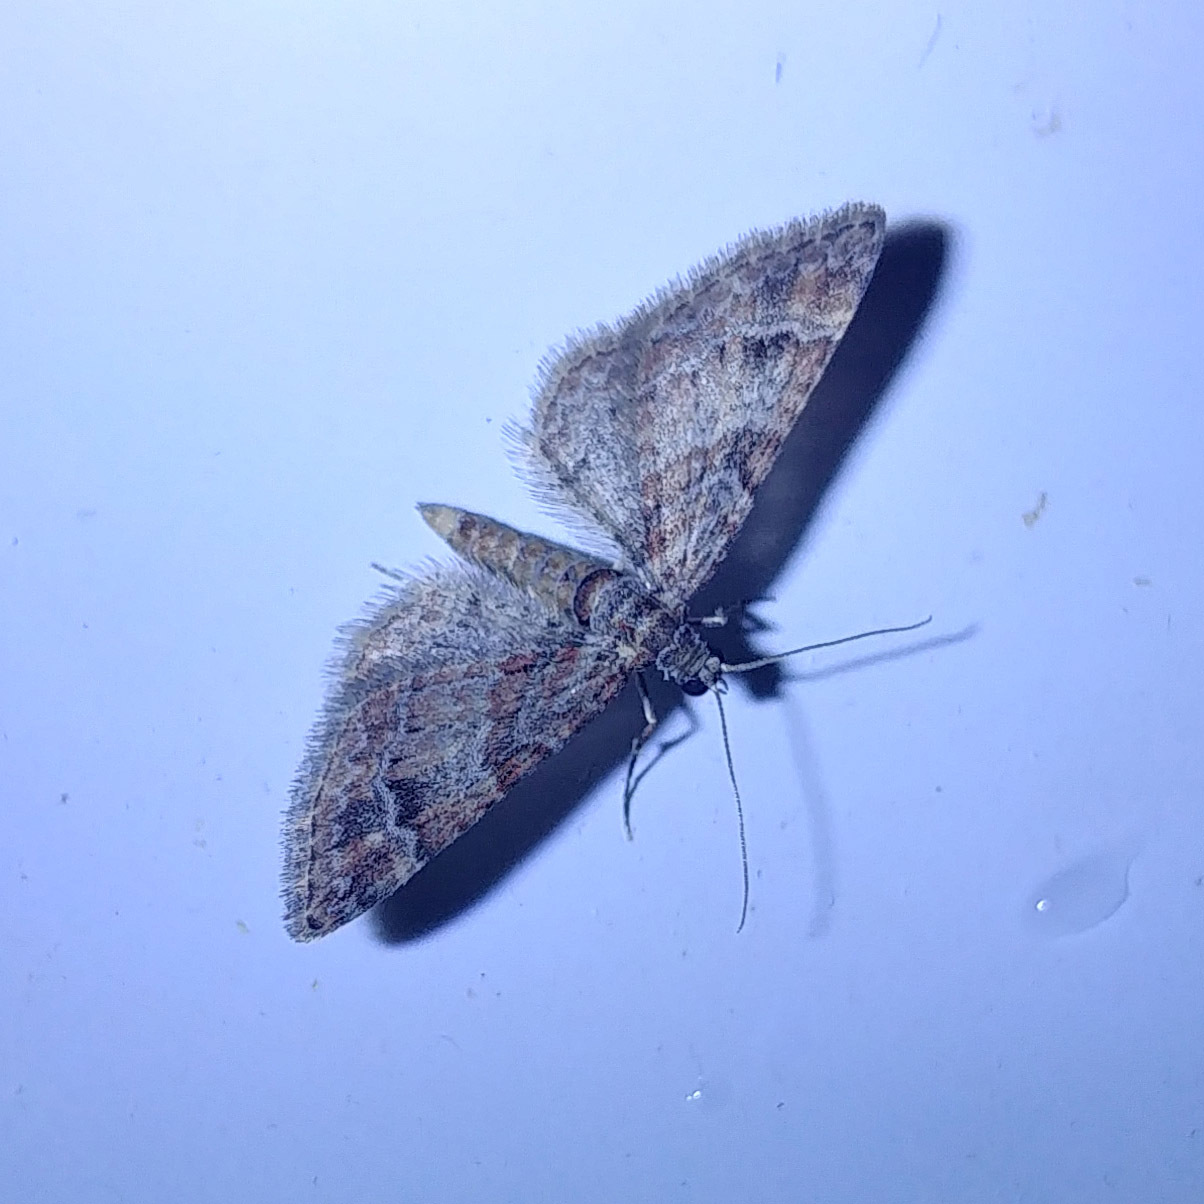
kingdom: Animalia
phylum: Arthropoda
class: Insecta
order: Lepidoptera
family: Geometridae
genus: Gymnoscelis
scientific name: Gymnoscelis rufifasciata
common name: Double-striped pug
